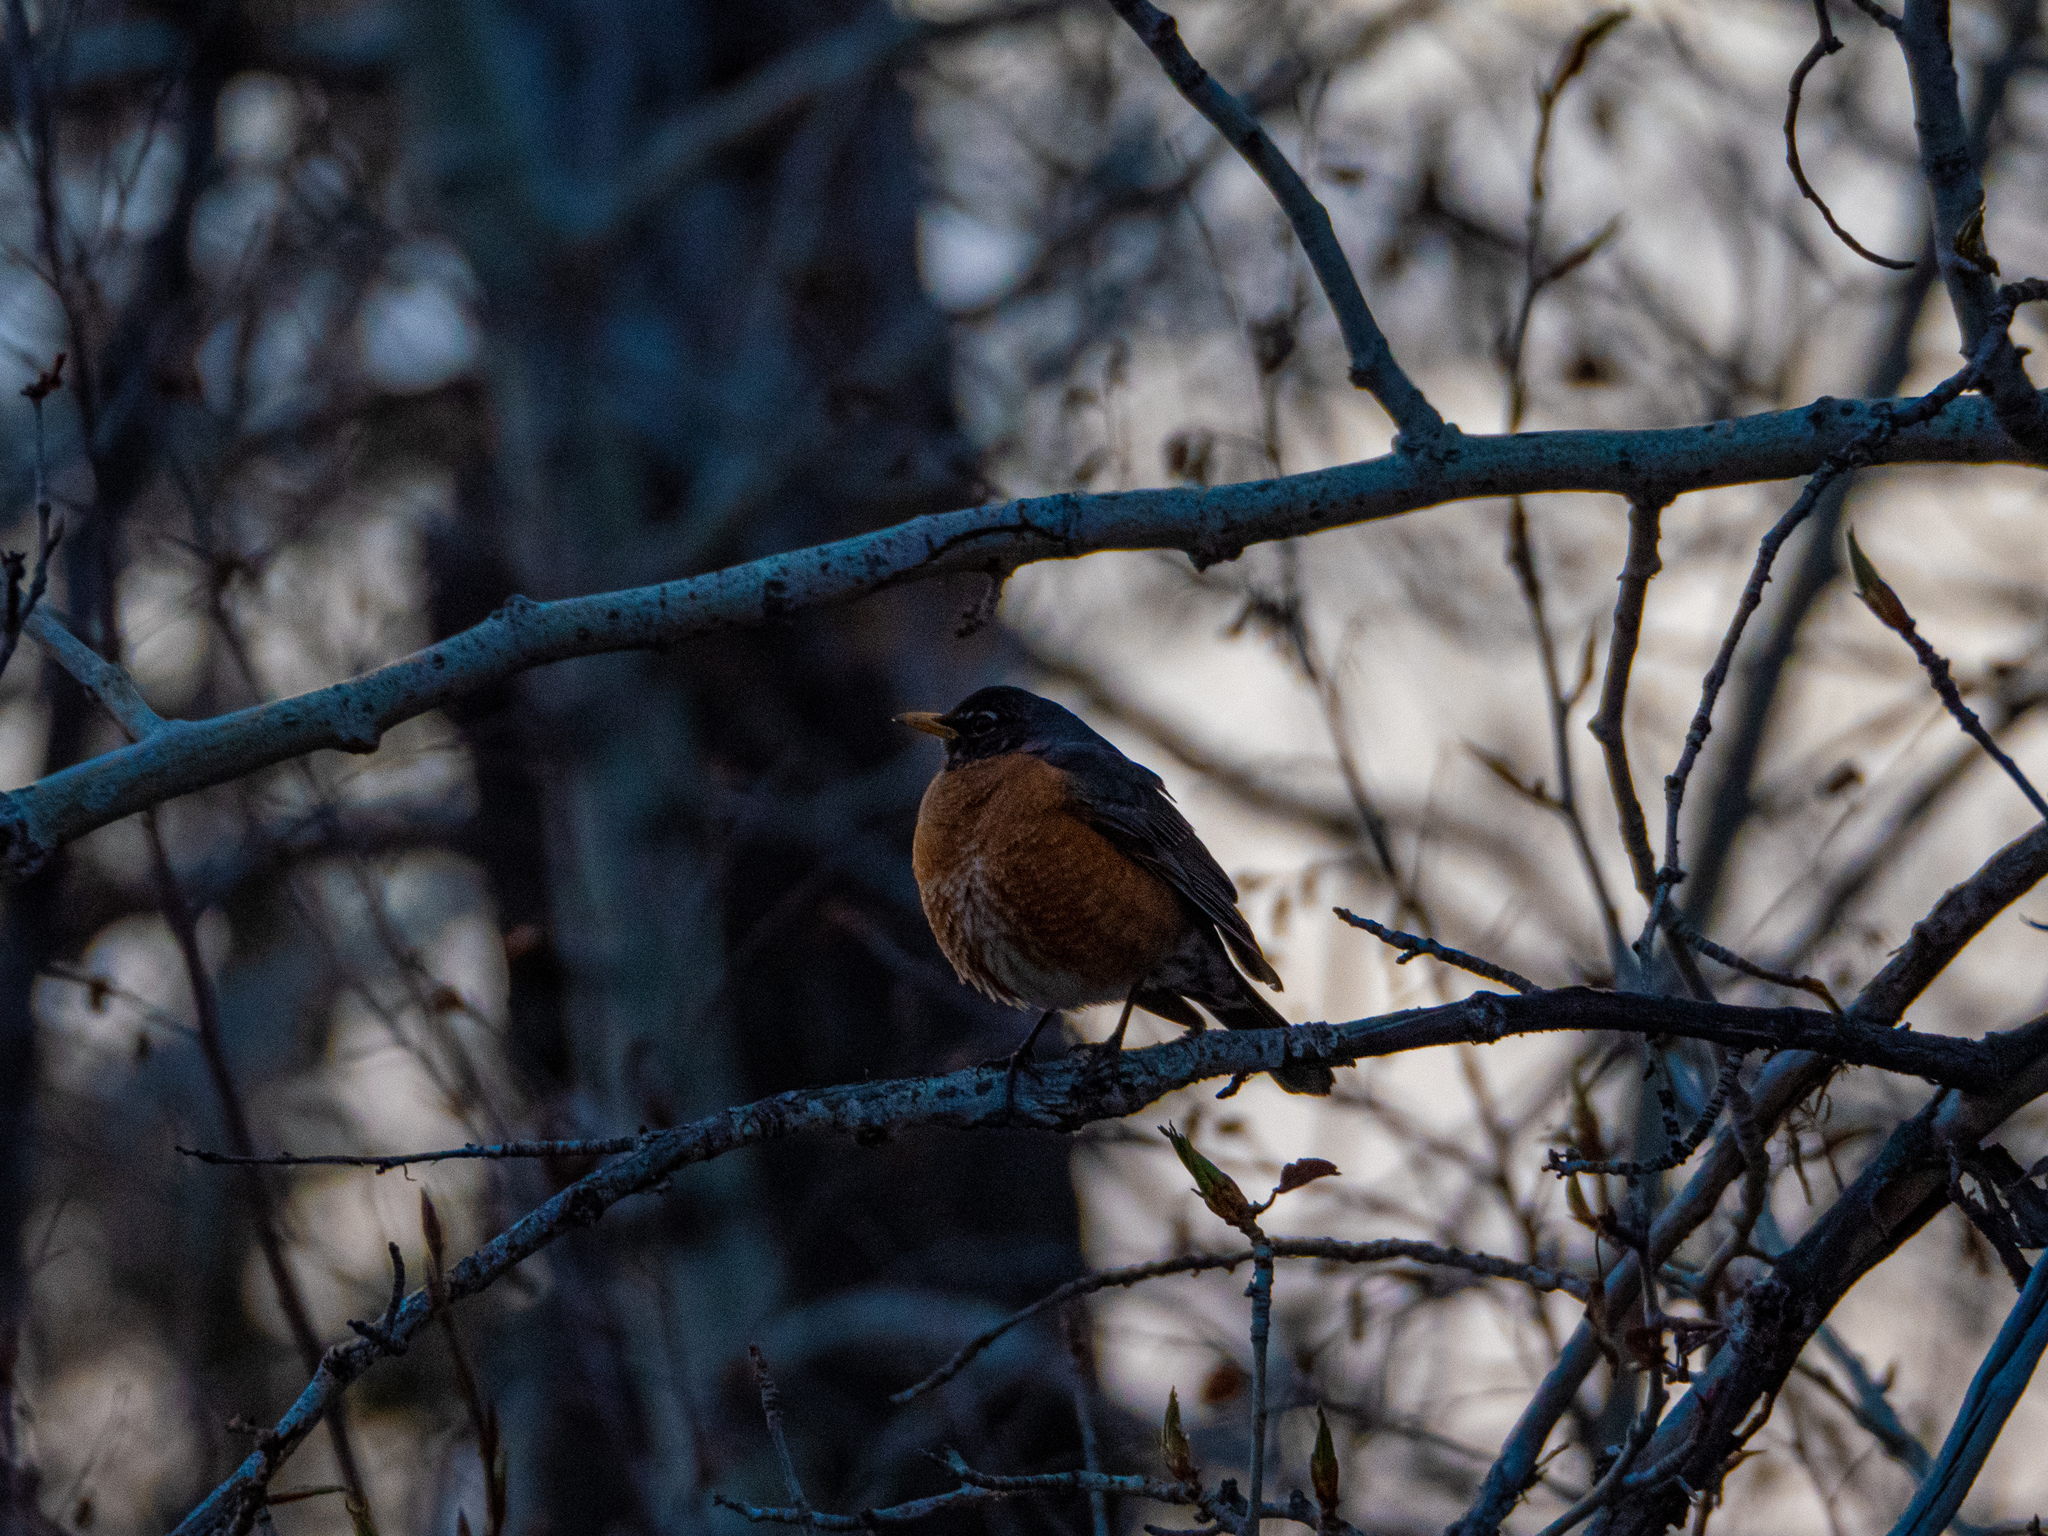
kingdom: Animalia
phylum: Chordata
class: Aves
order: Passeriformes
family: Turdidae
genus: Turdus
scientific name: Turdus migratorius
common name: American robin
